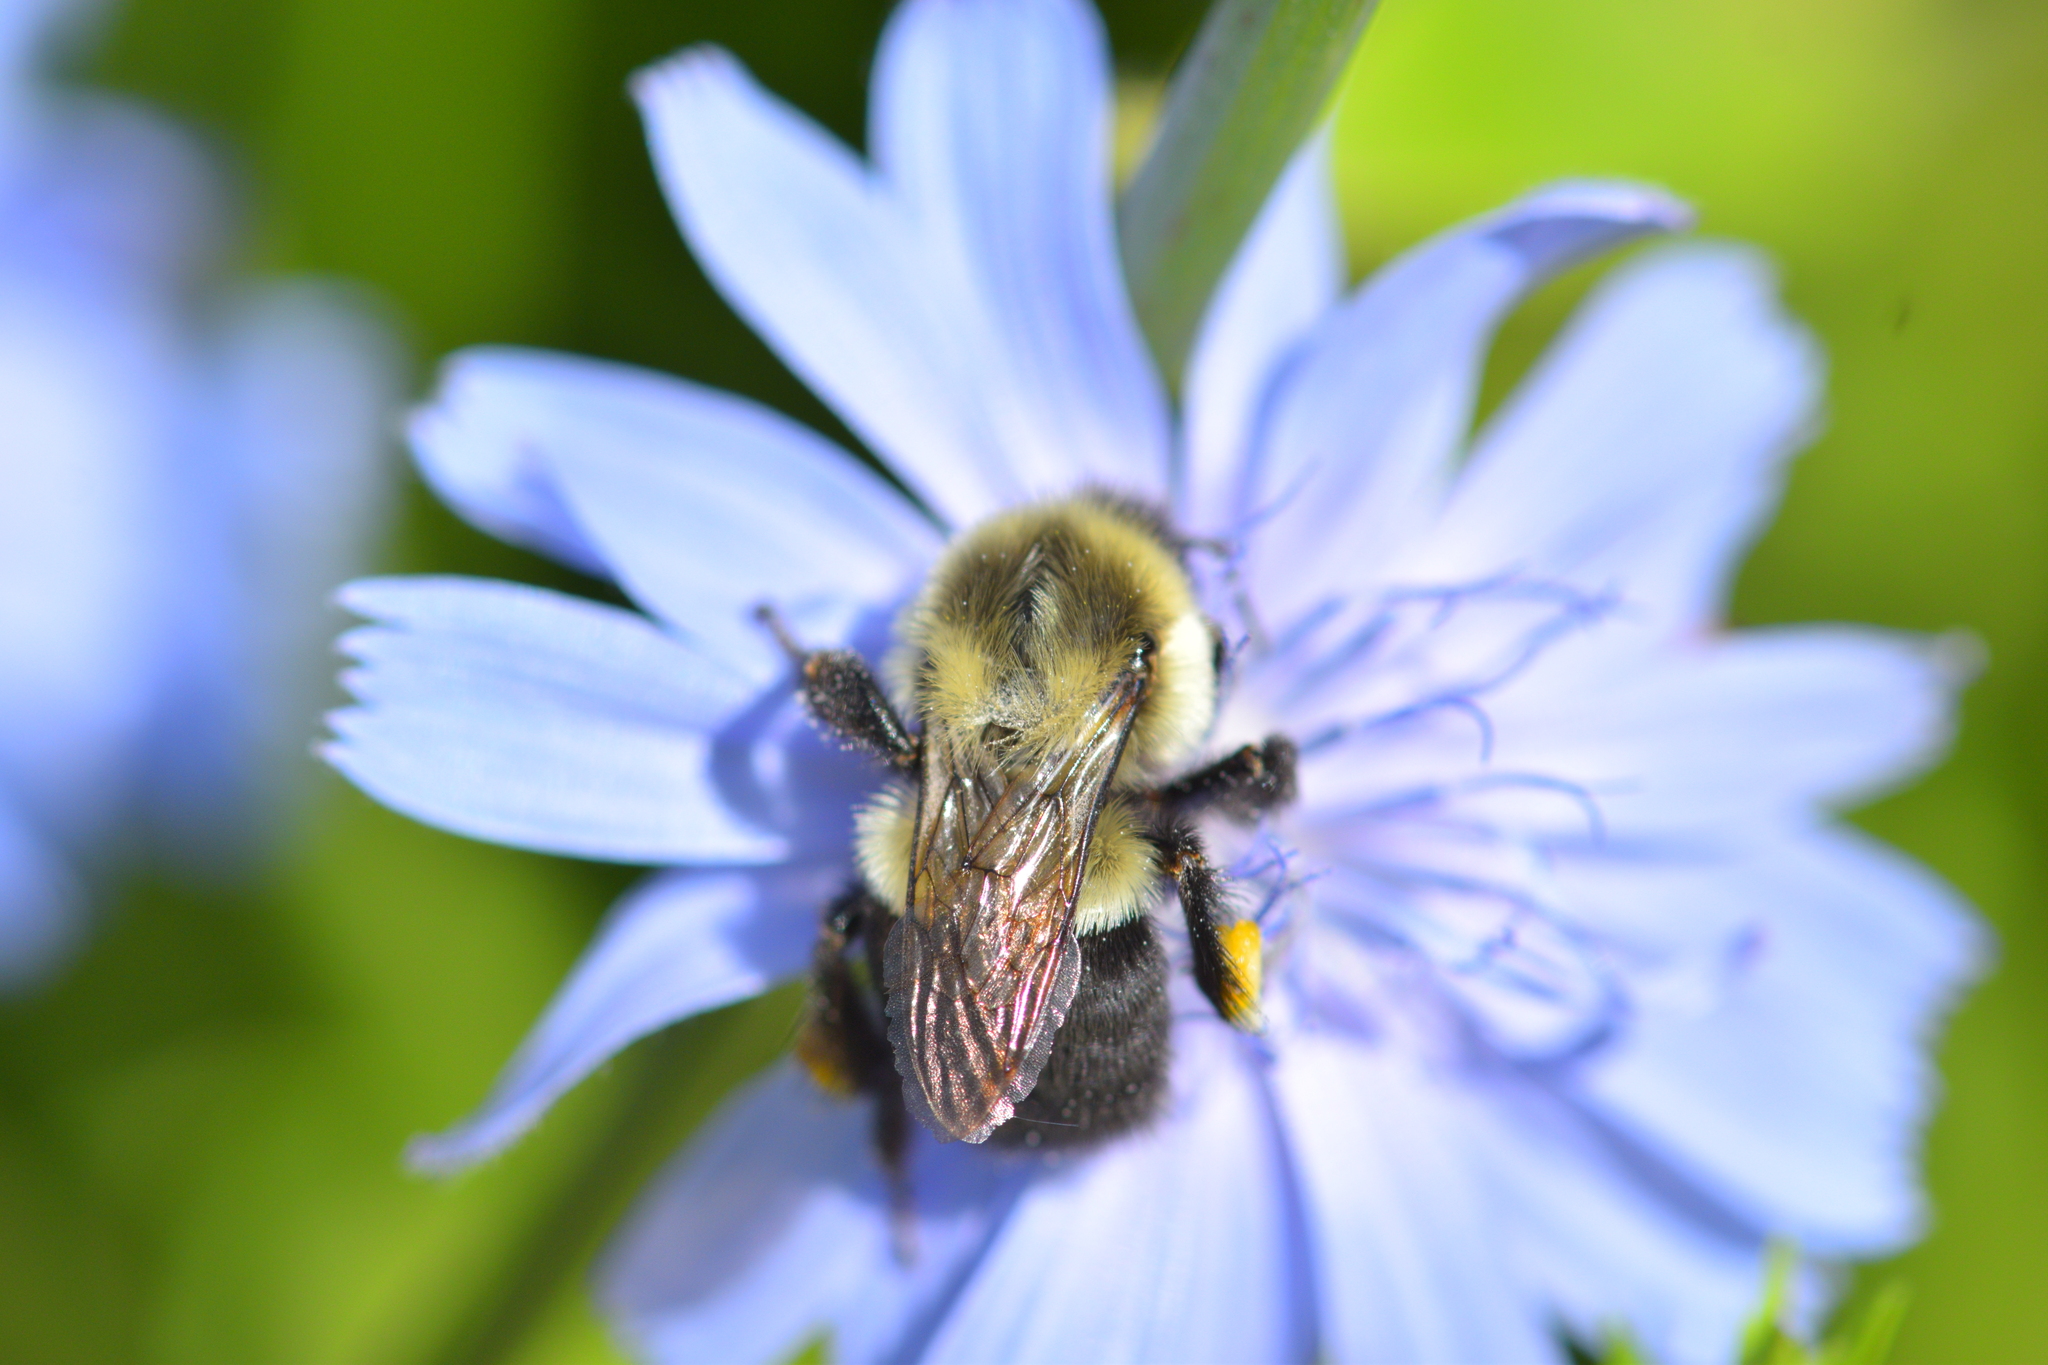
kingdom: Animalia
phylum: Arthropoda
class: Insecta
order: Hymenoptera
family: Apidae
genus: Bombus
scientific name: Bombus impatiens
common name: Common eastern bumble bee
